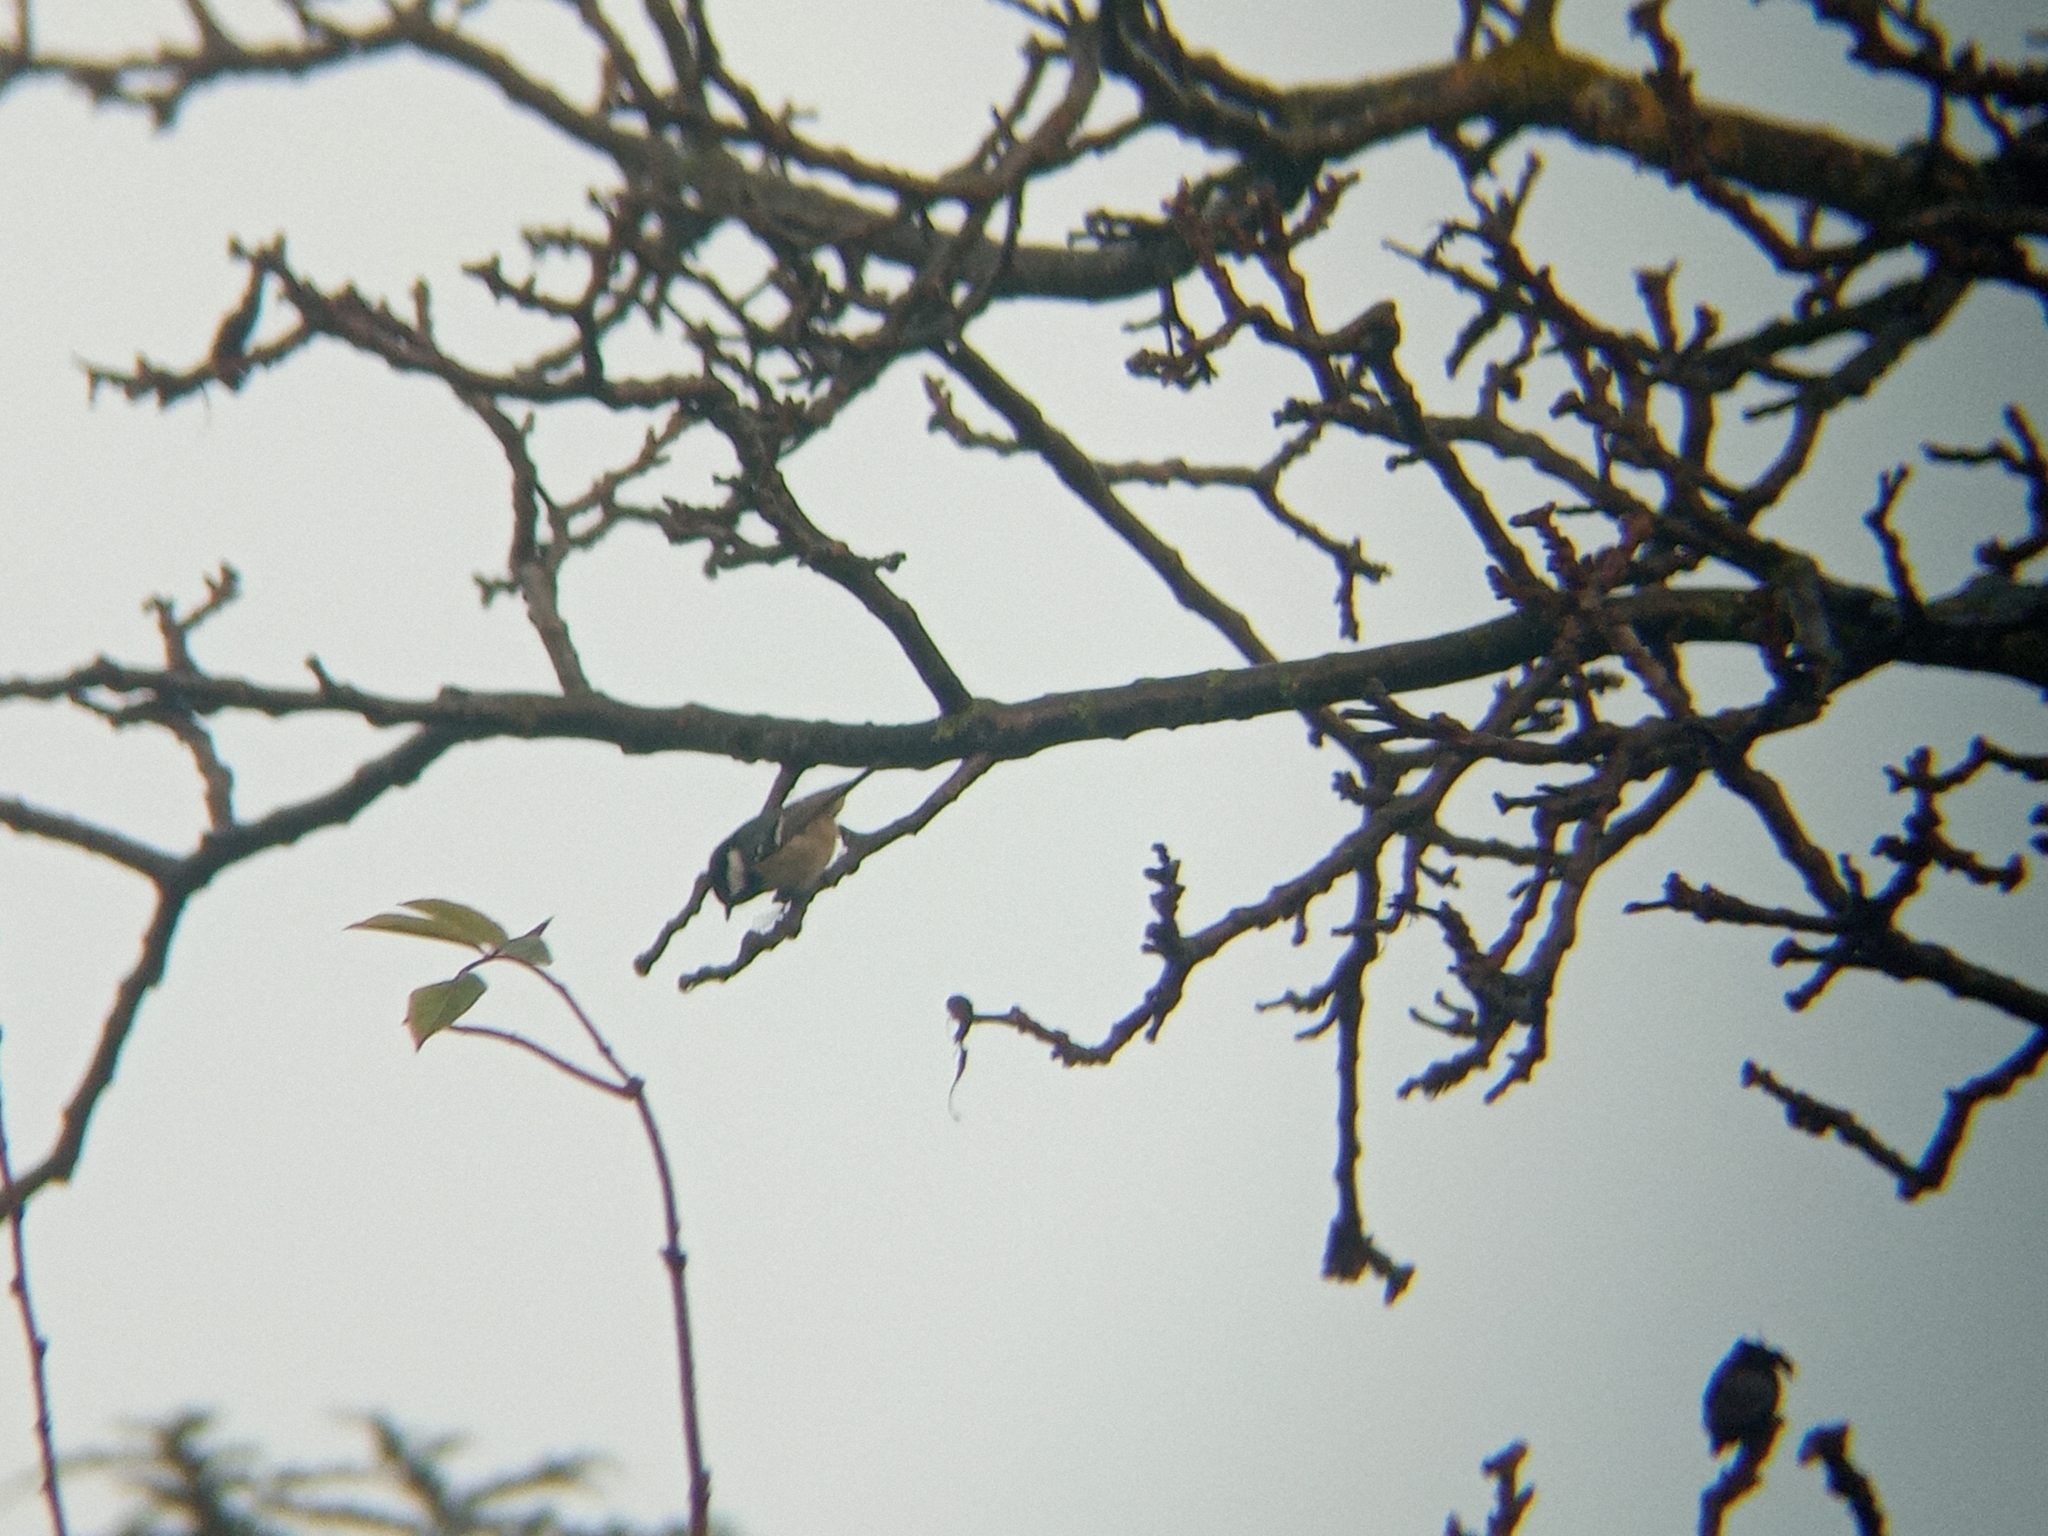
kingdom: Animalia
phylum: Chordata
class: Aves
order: Passeriformes
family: Paridae
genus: Periparus
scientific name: Periparus ater
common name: Coal tit
